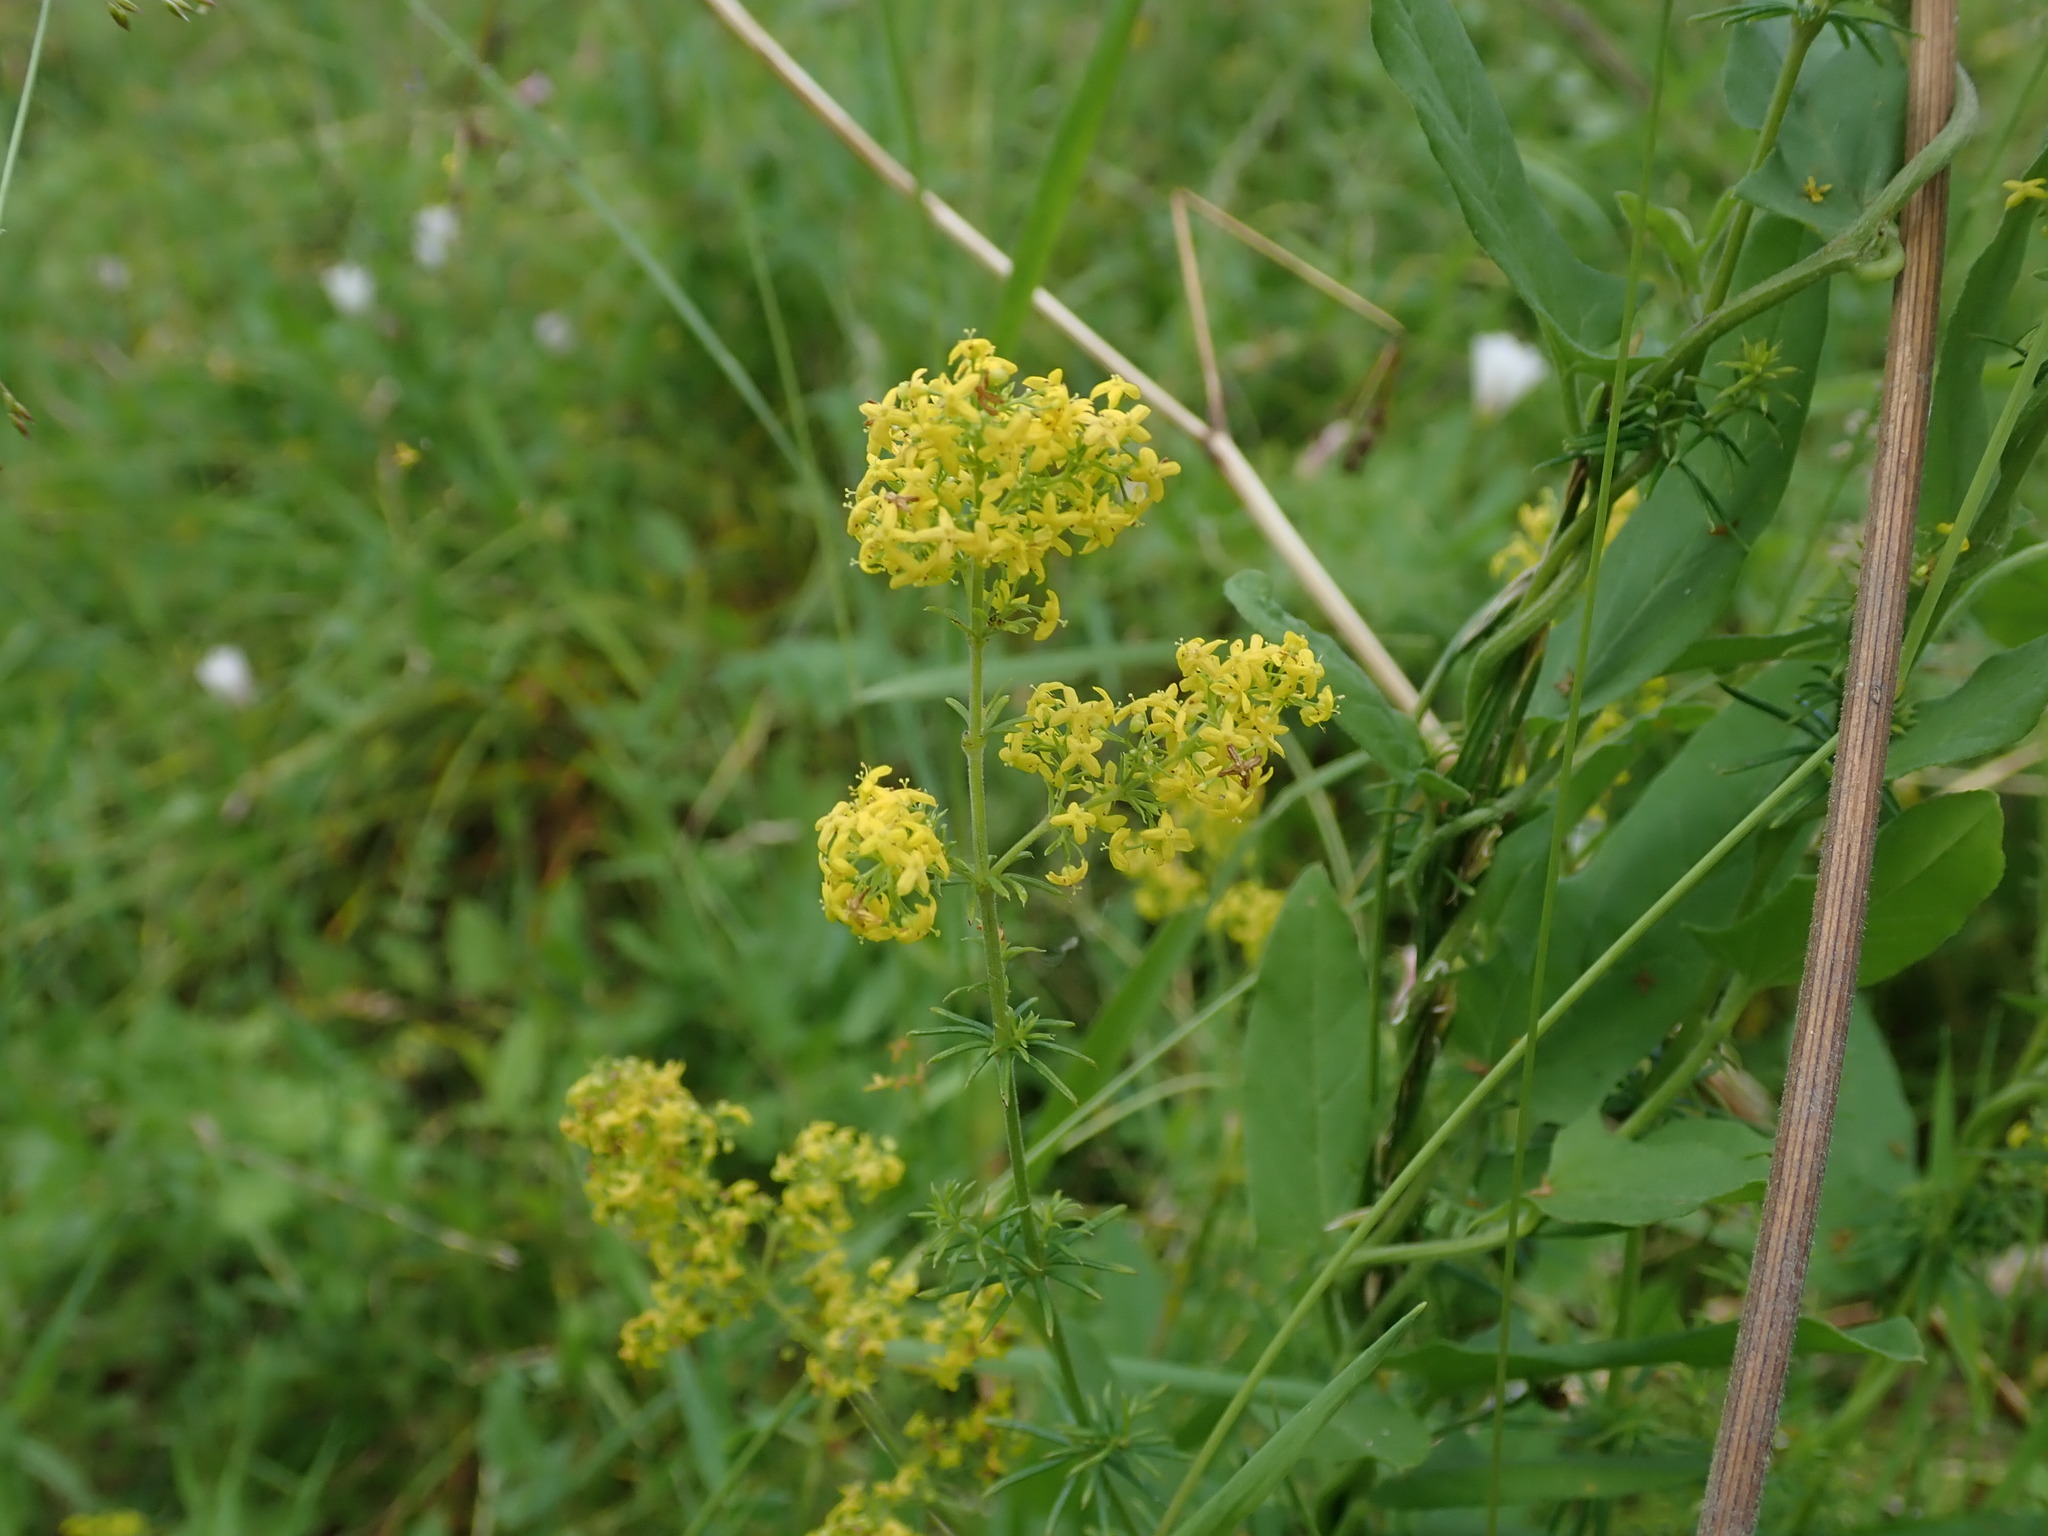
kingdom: Plantae
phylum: Tracheophyta
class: Magnoliopsida
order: Gentianales
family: Rubiaceae
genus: Galium
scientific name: Galium verum
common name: Lady's bedstraw
